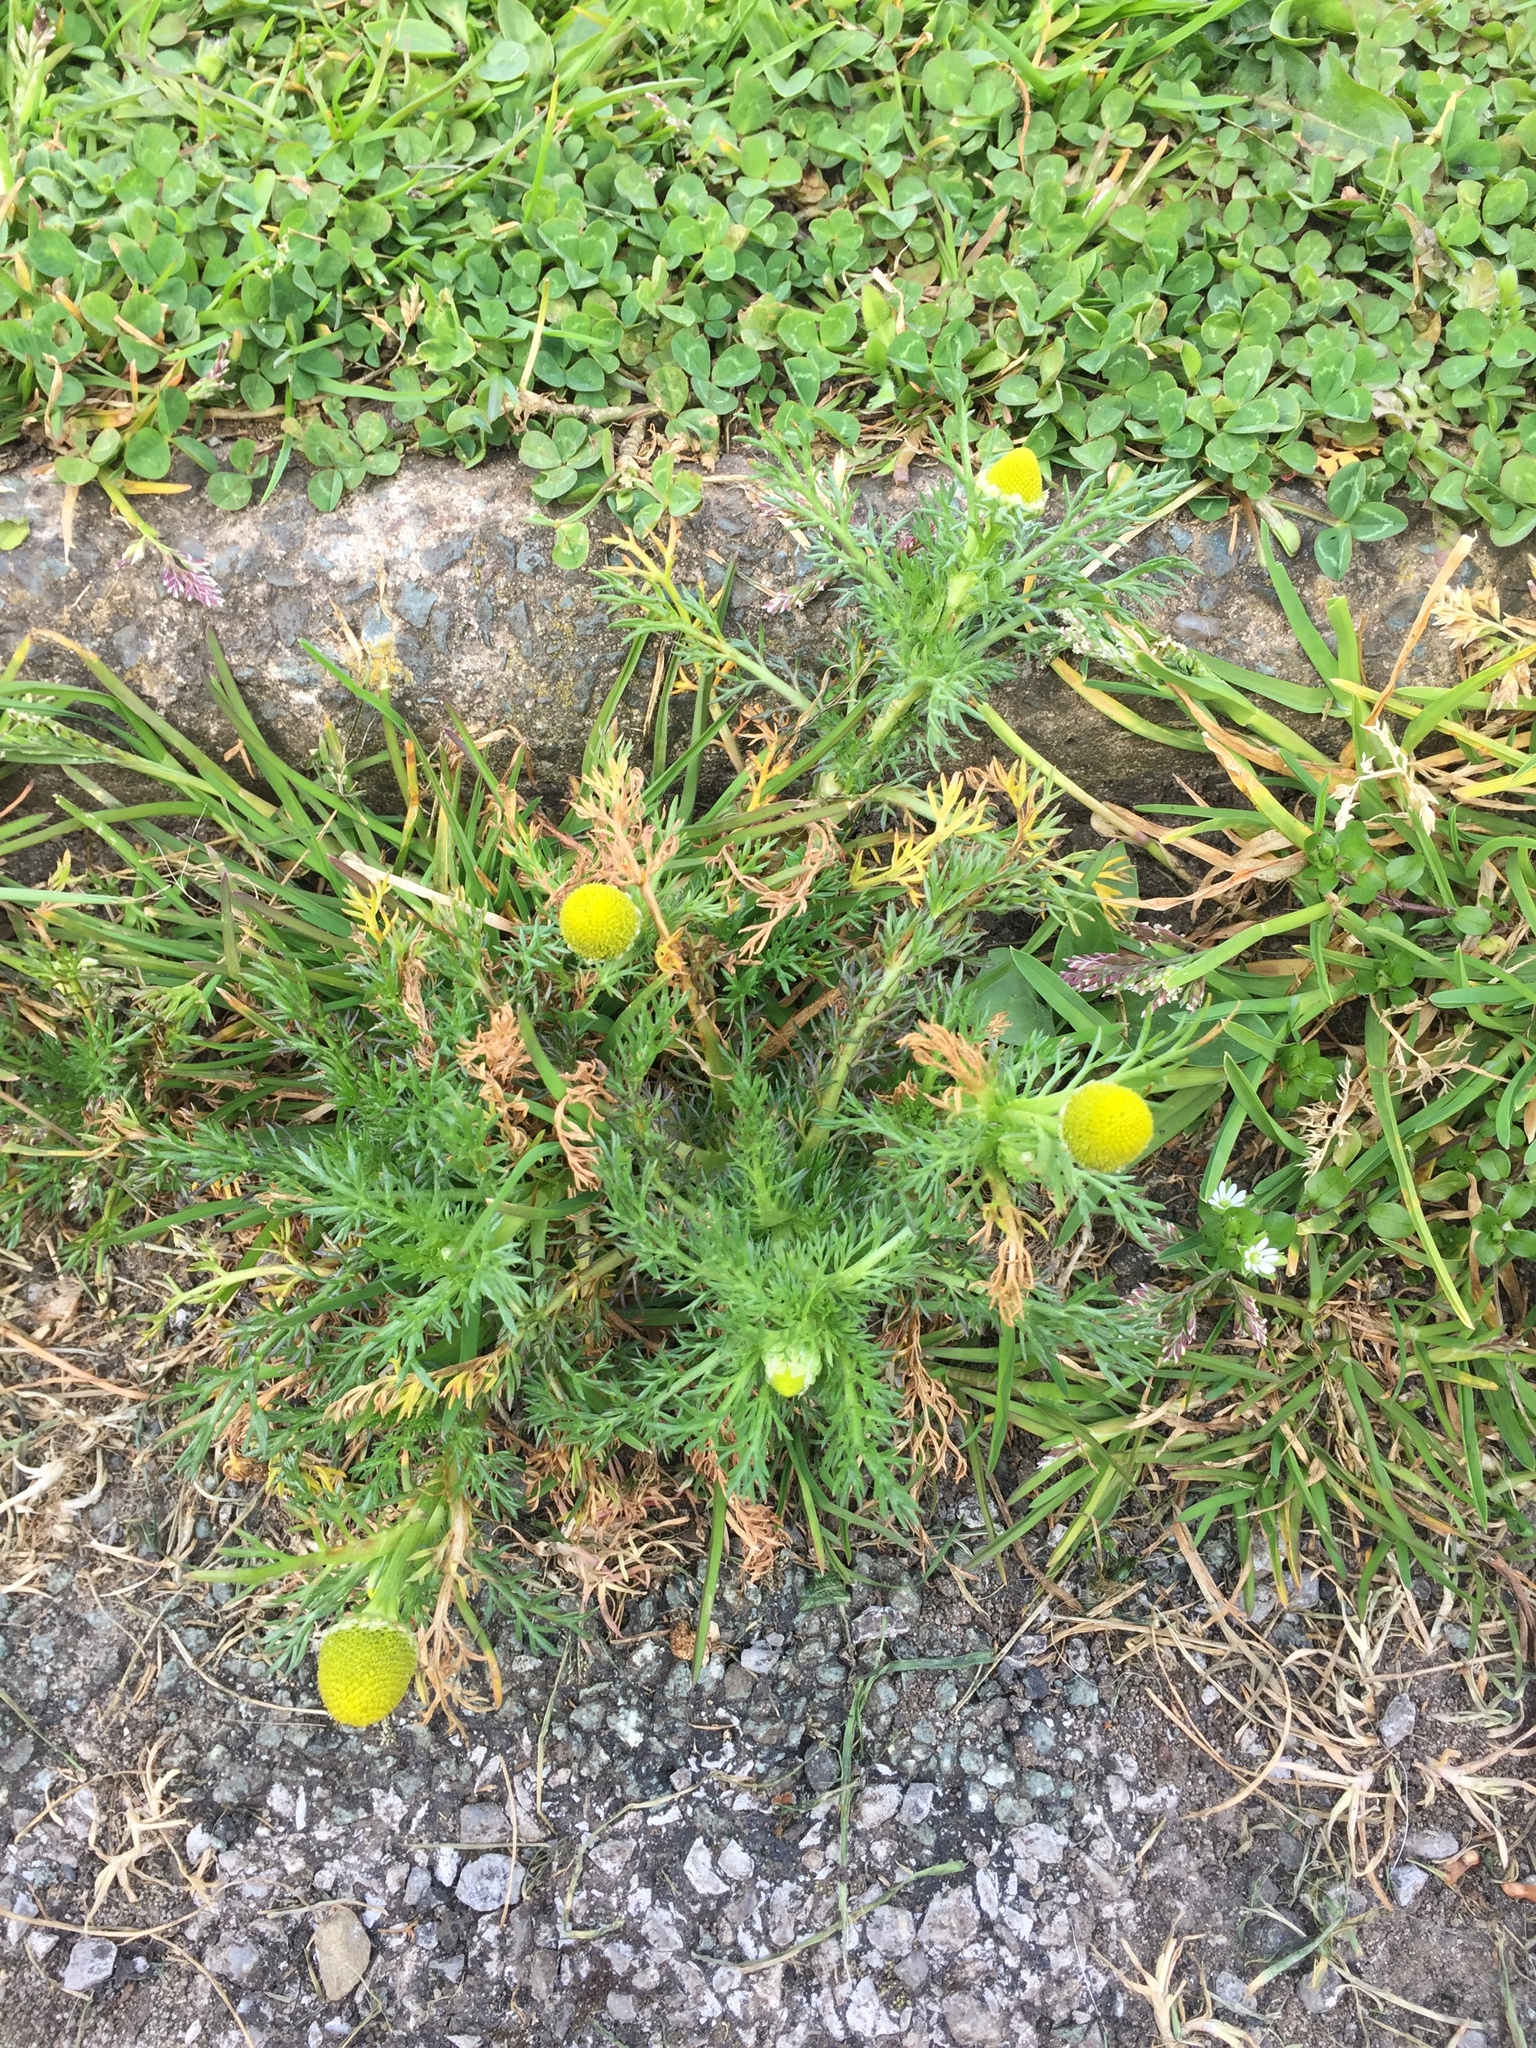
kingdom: Plantae
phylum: Tracheophyta
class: Magnoliopsida
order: Asterales
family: Asteraceae
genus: Matricaria
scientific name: Matricaria discoidea
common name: Disc mayweed
